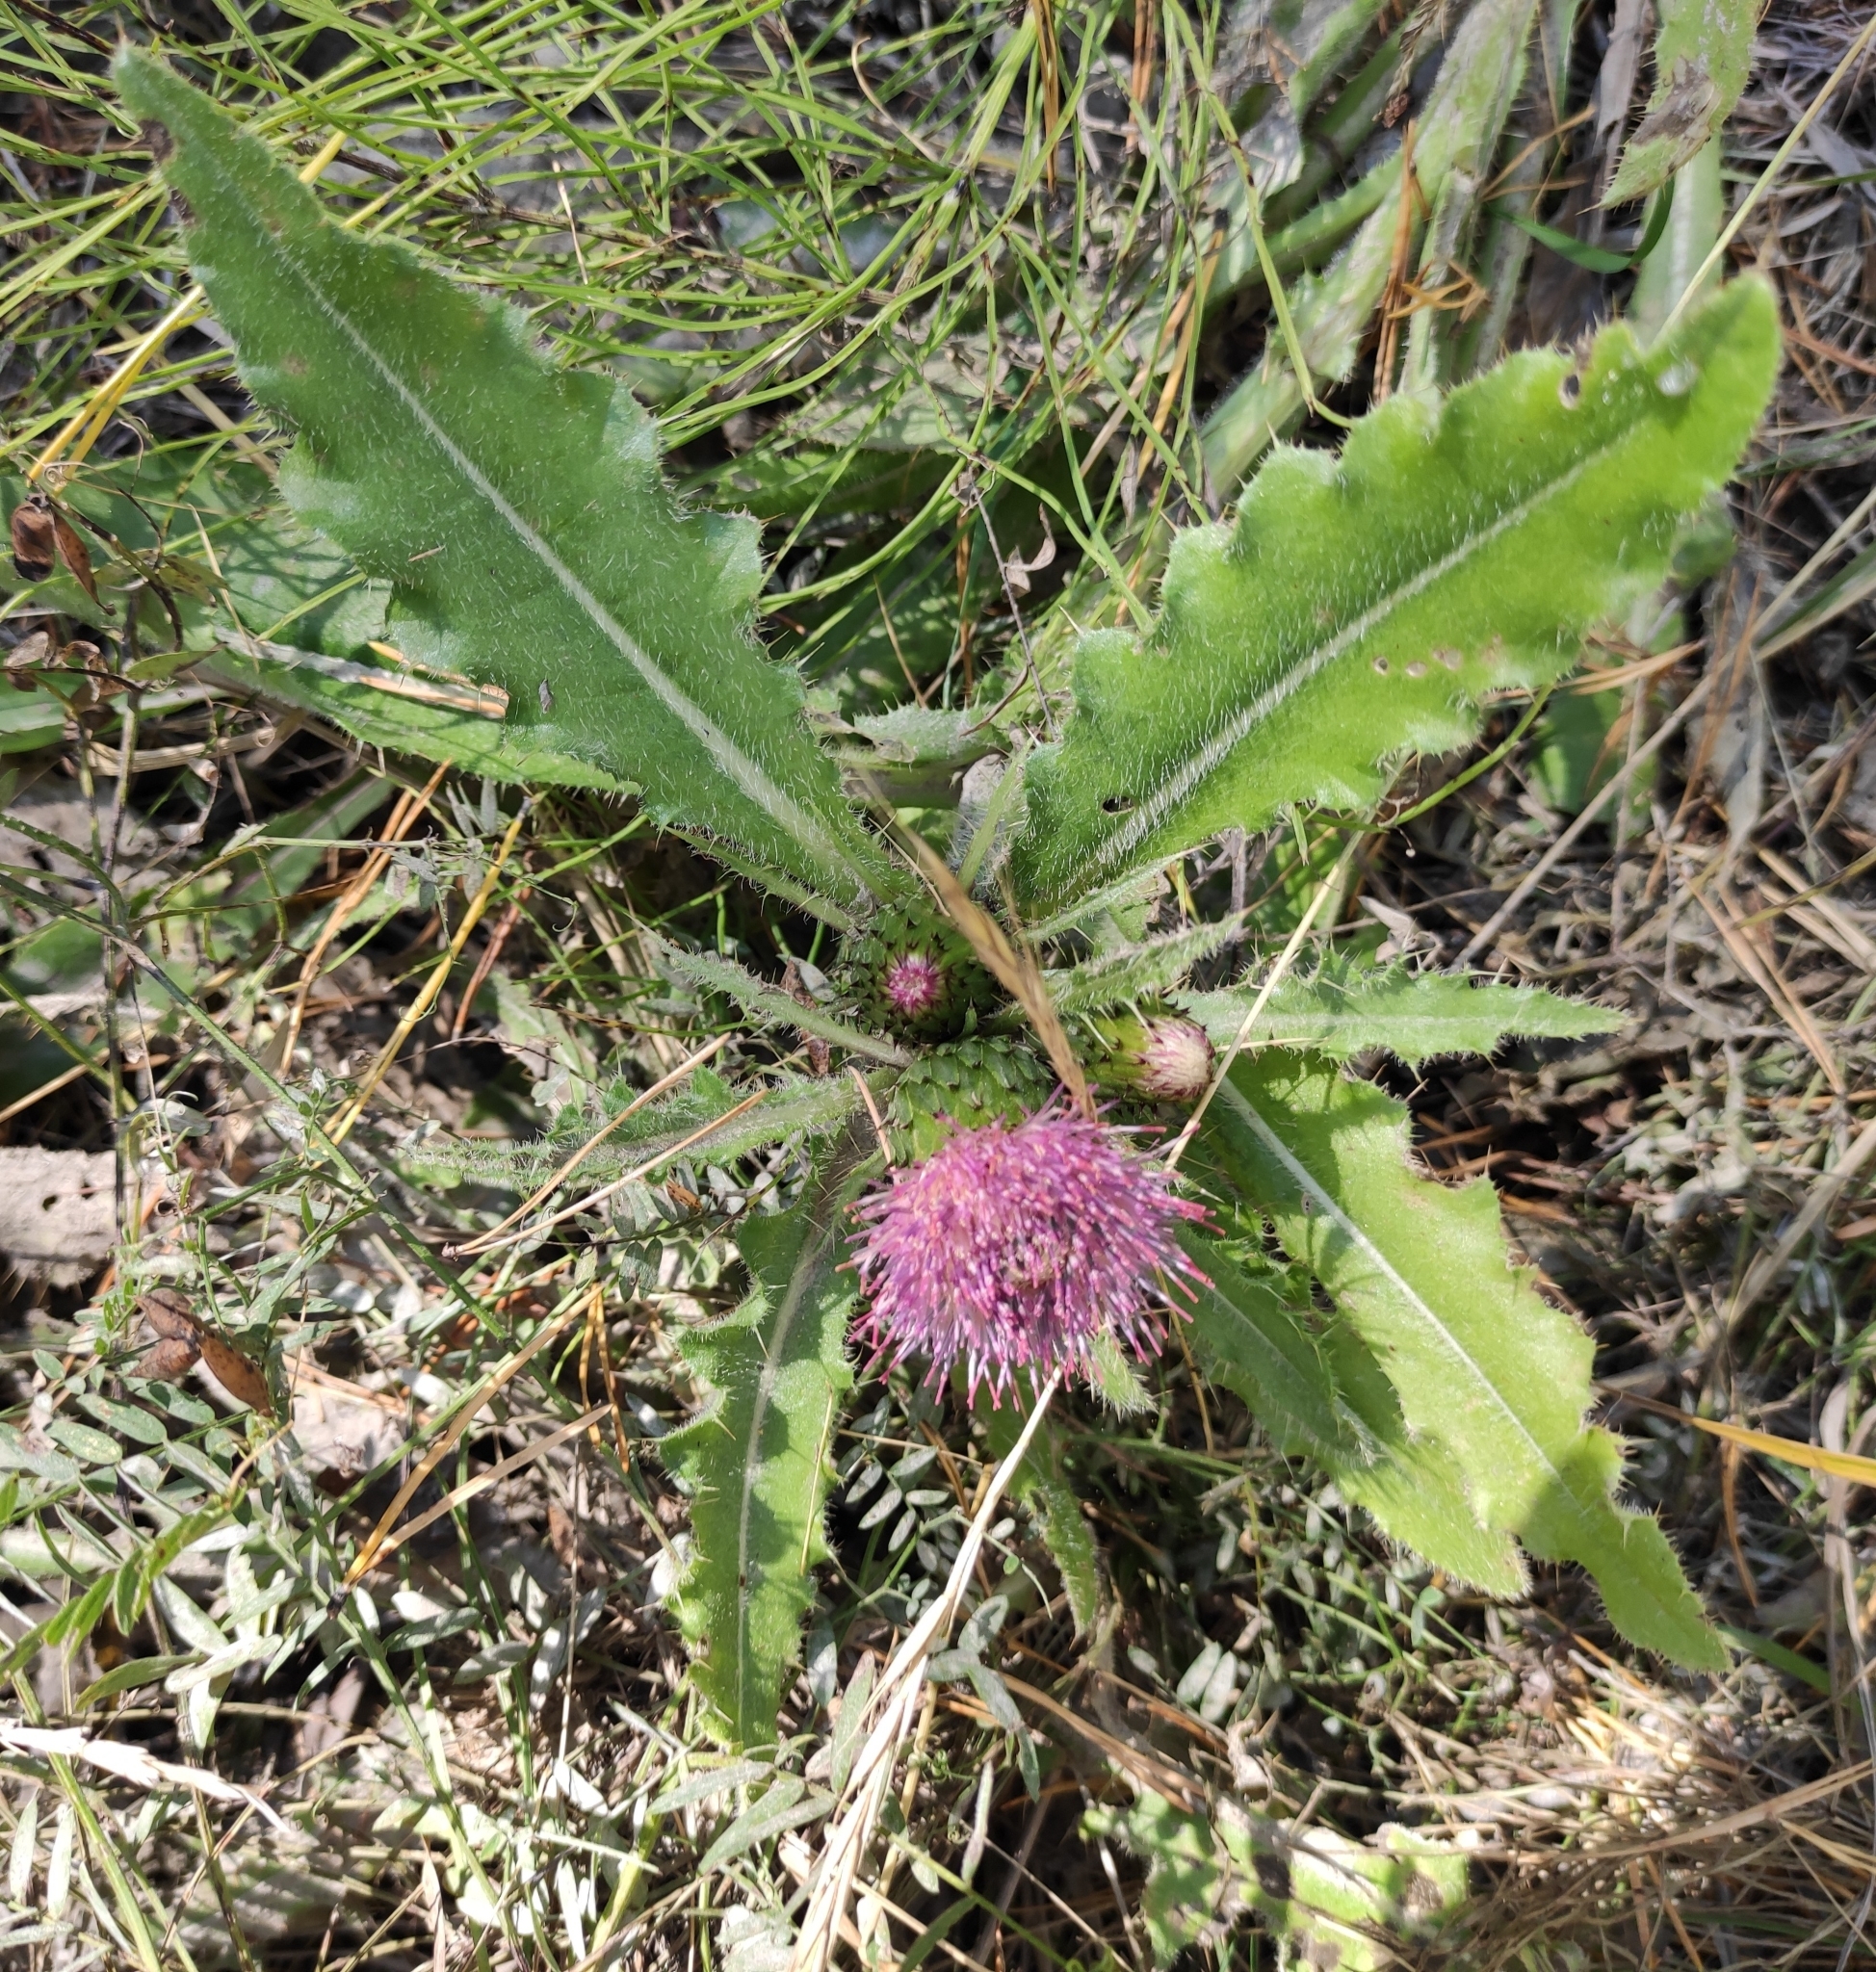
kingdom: Plantae
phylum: Tracheophyta
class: Magnoliopsida
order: Asterales
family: Asteraceae
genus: Cirsium
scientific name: Cirsium esculentum
